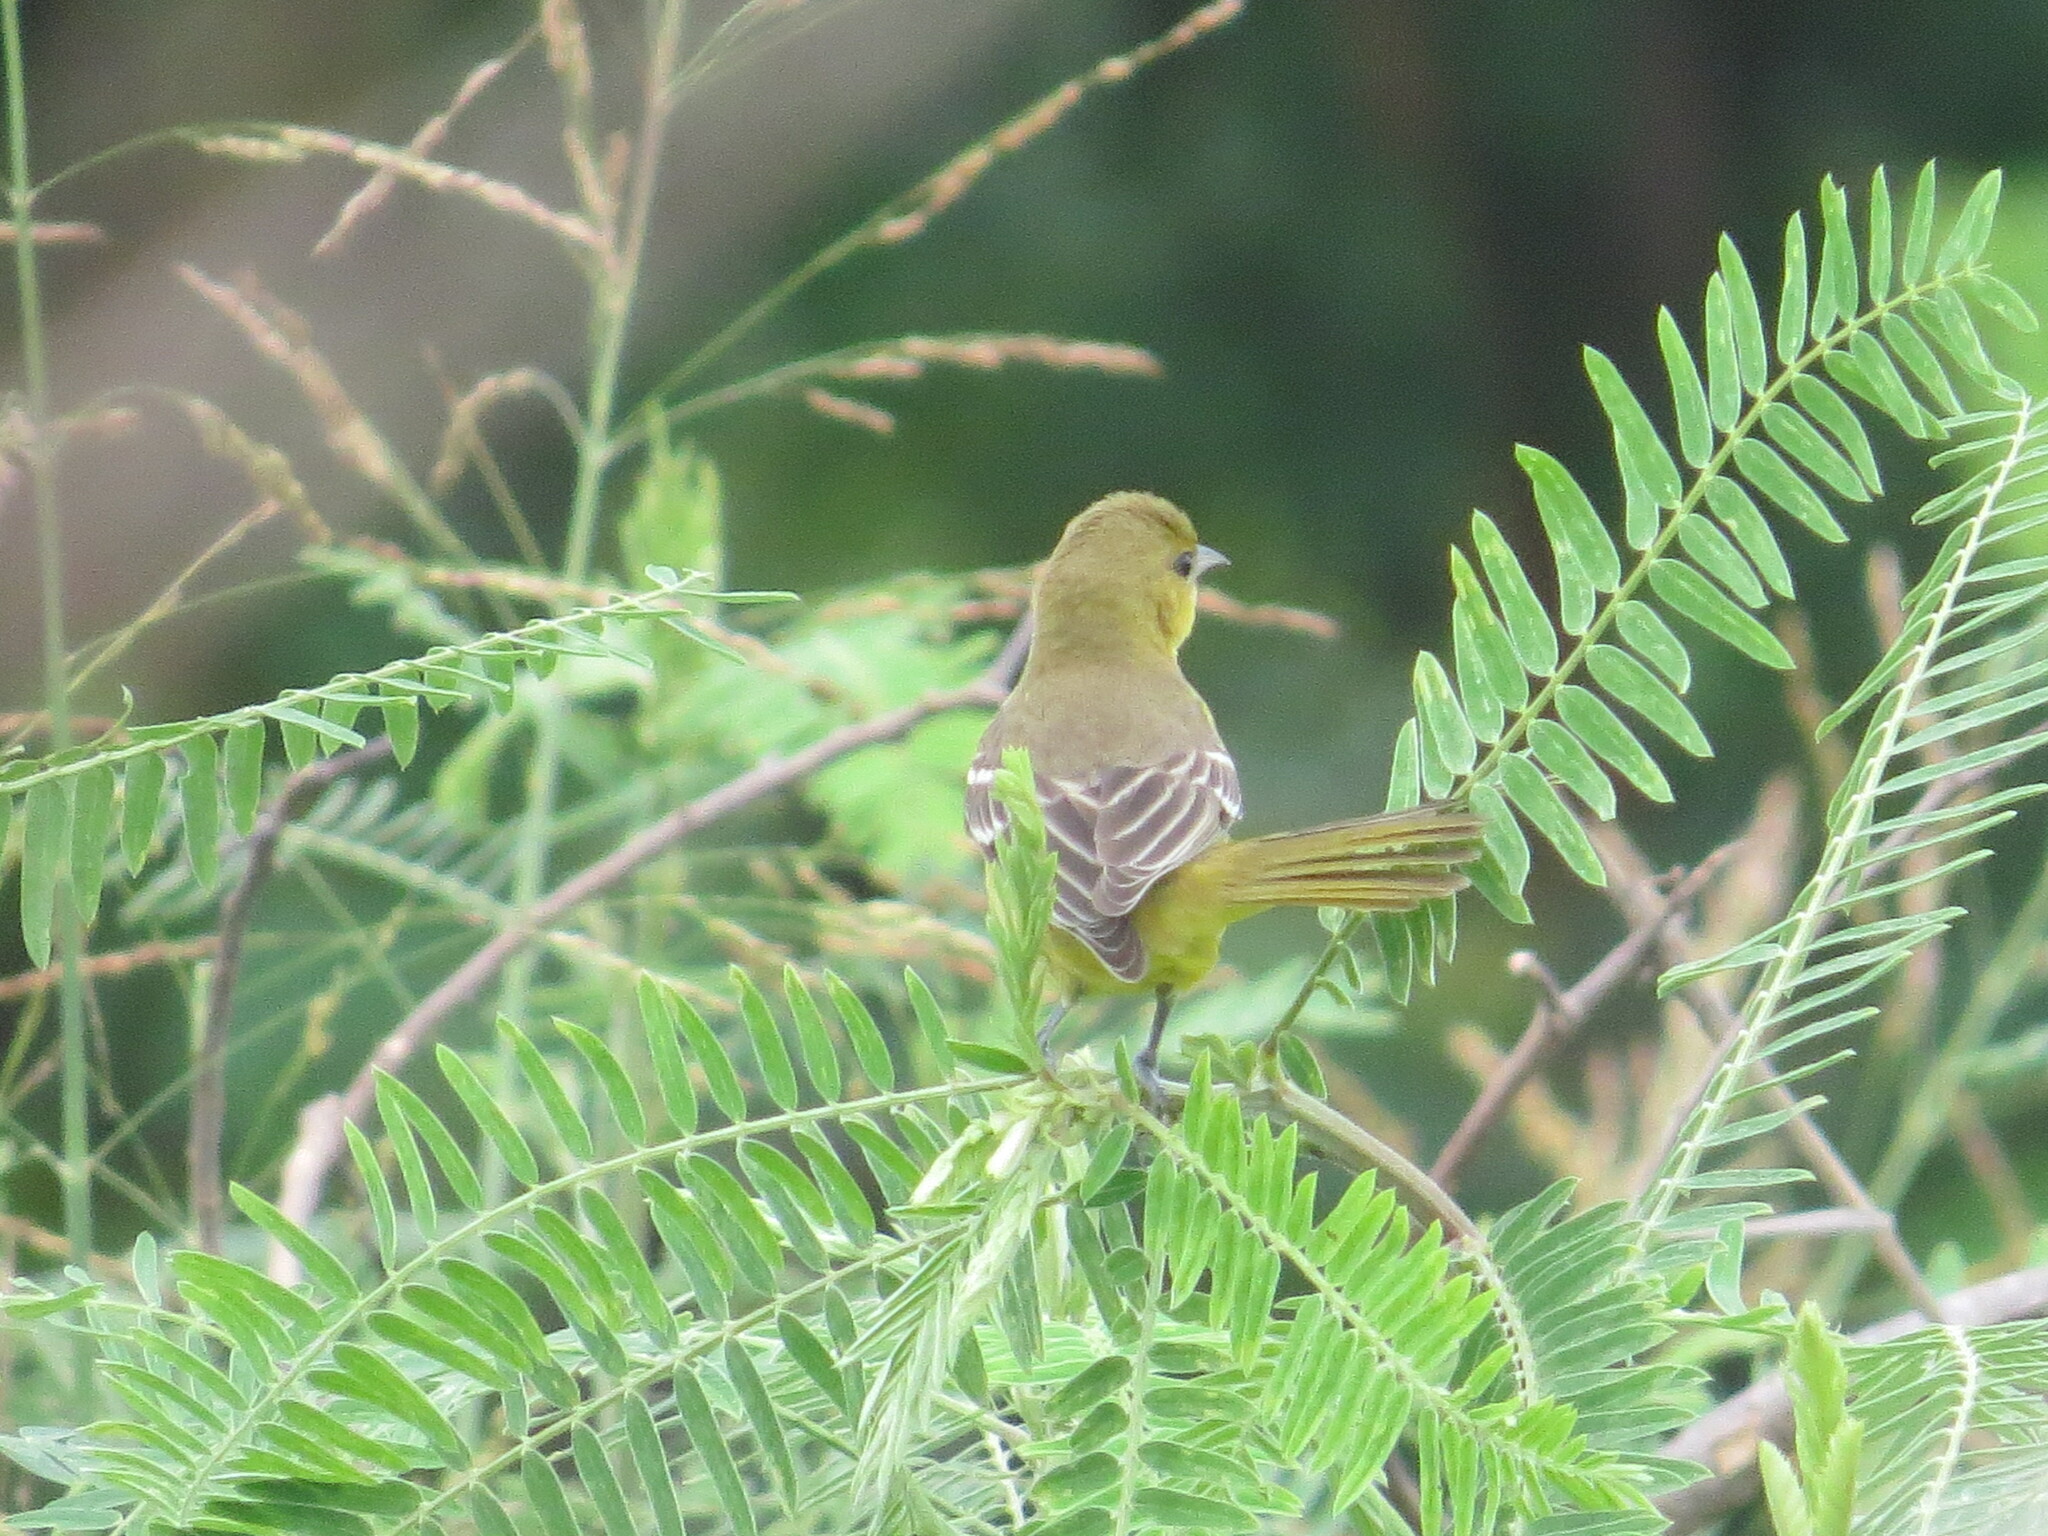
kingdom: Animalia
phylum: Chordata
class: Aves
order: Passeriformes
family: Icteridae
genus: Icterus
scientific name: Icterus spurius
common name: Orchard oriole
